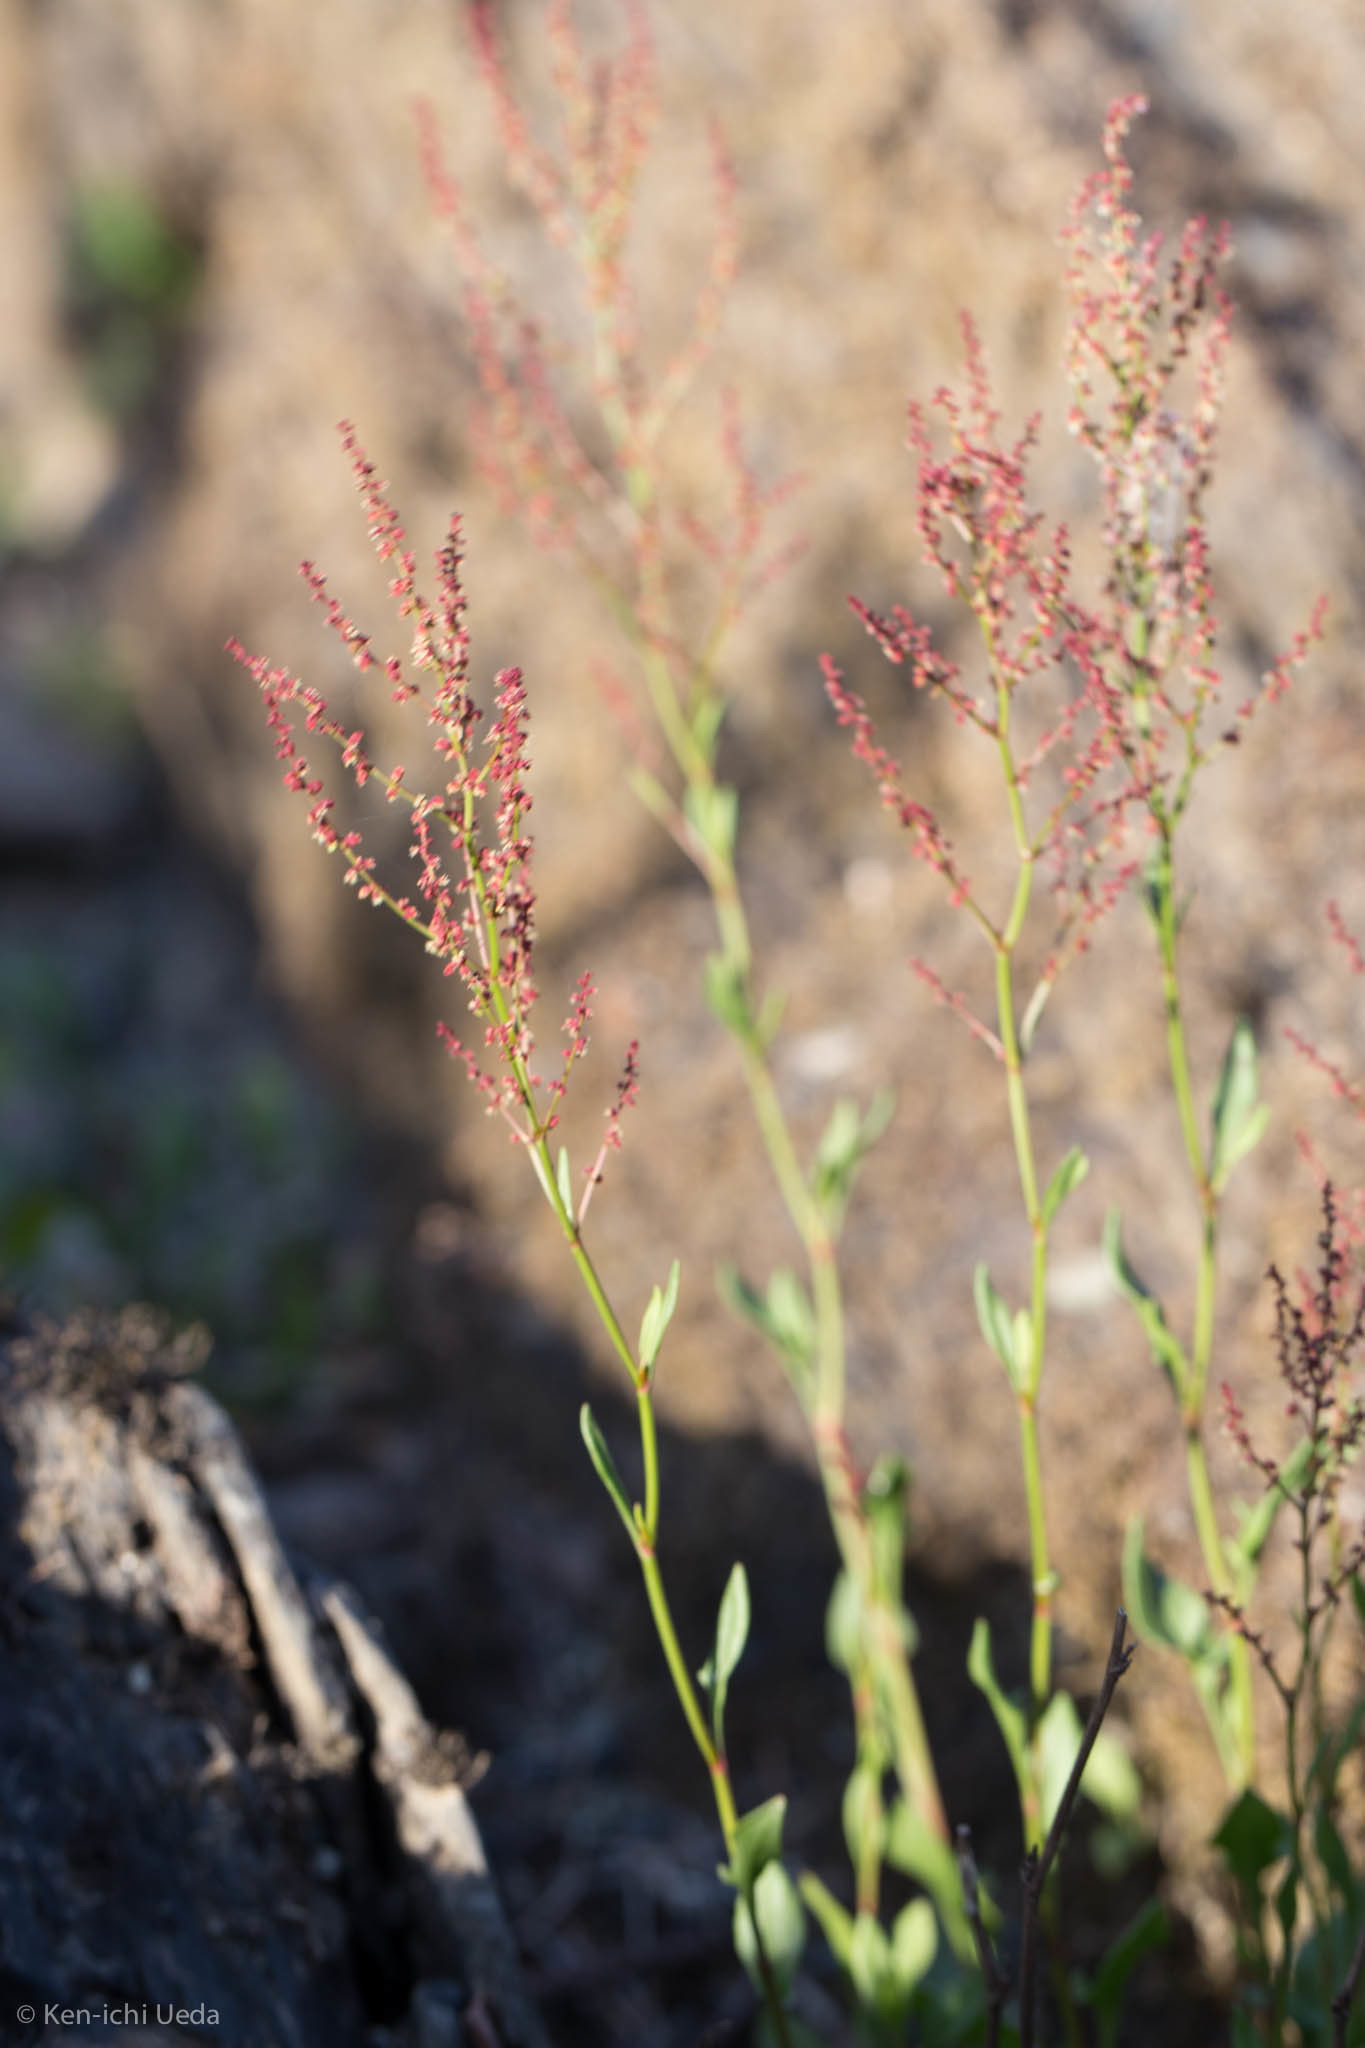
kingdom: Plantae
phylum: Tracheophyta
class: Magnoliopsida
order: Caryophyllales
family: Polygonaceae
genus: Rumex
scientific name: Rumex acetosella
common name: Common sheep sorrel
